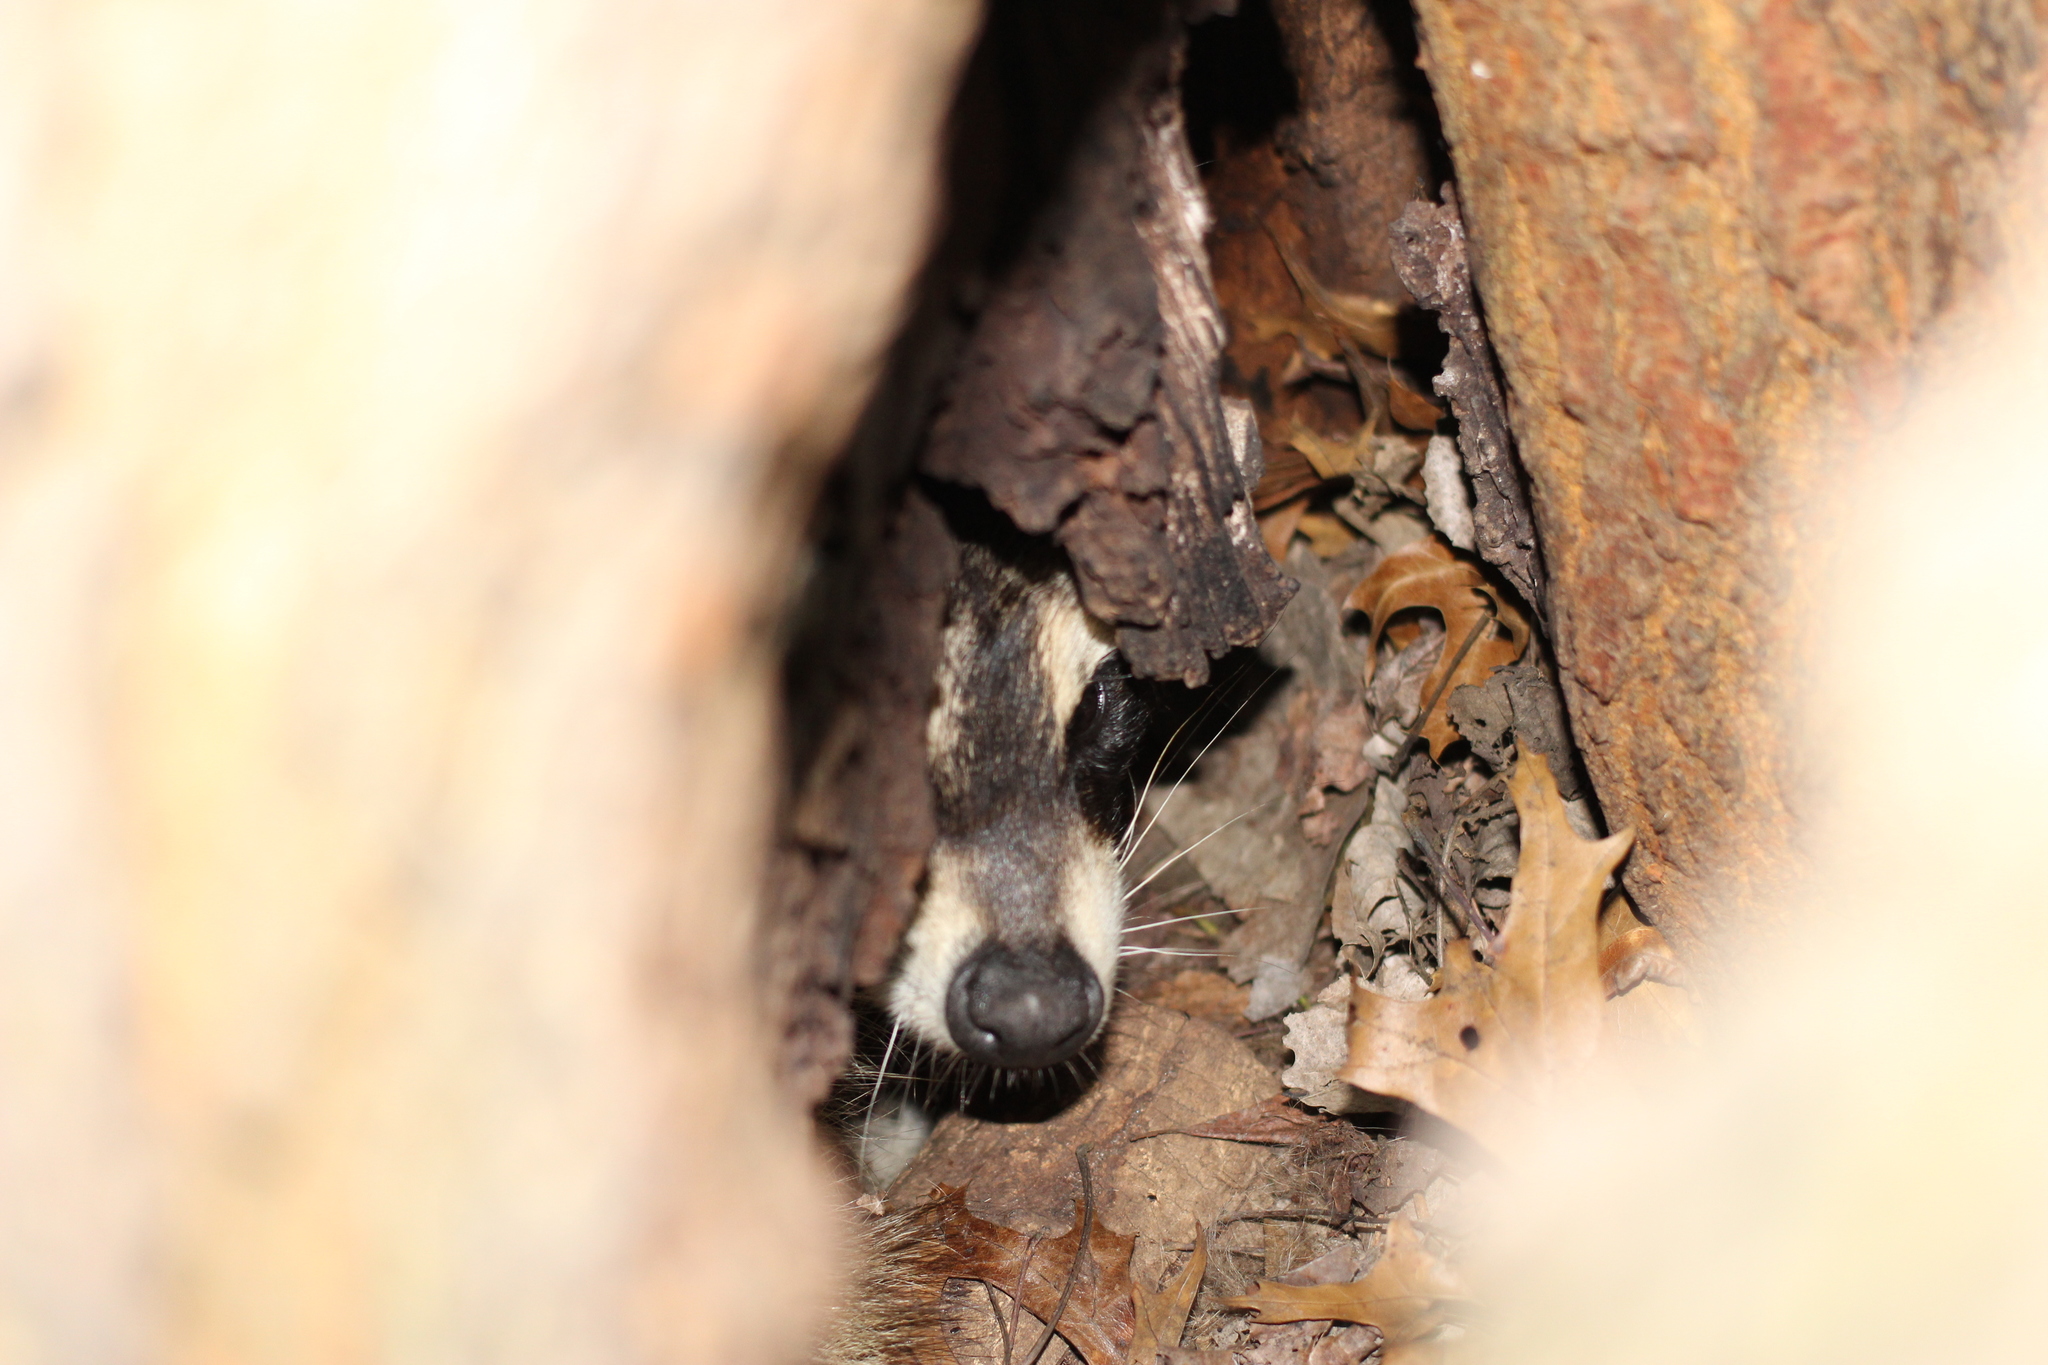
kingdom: Animalia
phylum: Chordata
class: Mammalia
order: Carnivora
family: Procyonidae
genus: Procyon
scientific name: Procyon lotor
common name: Raccoon
